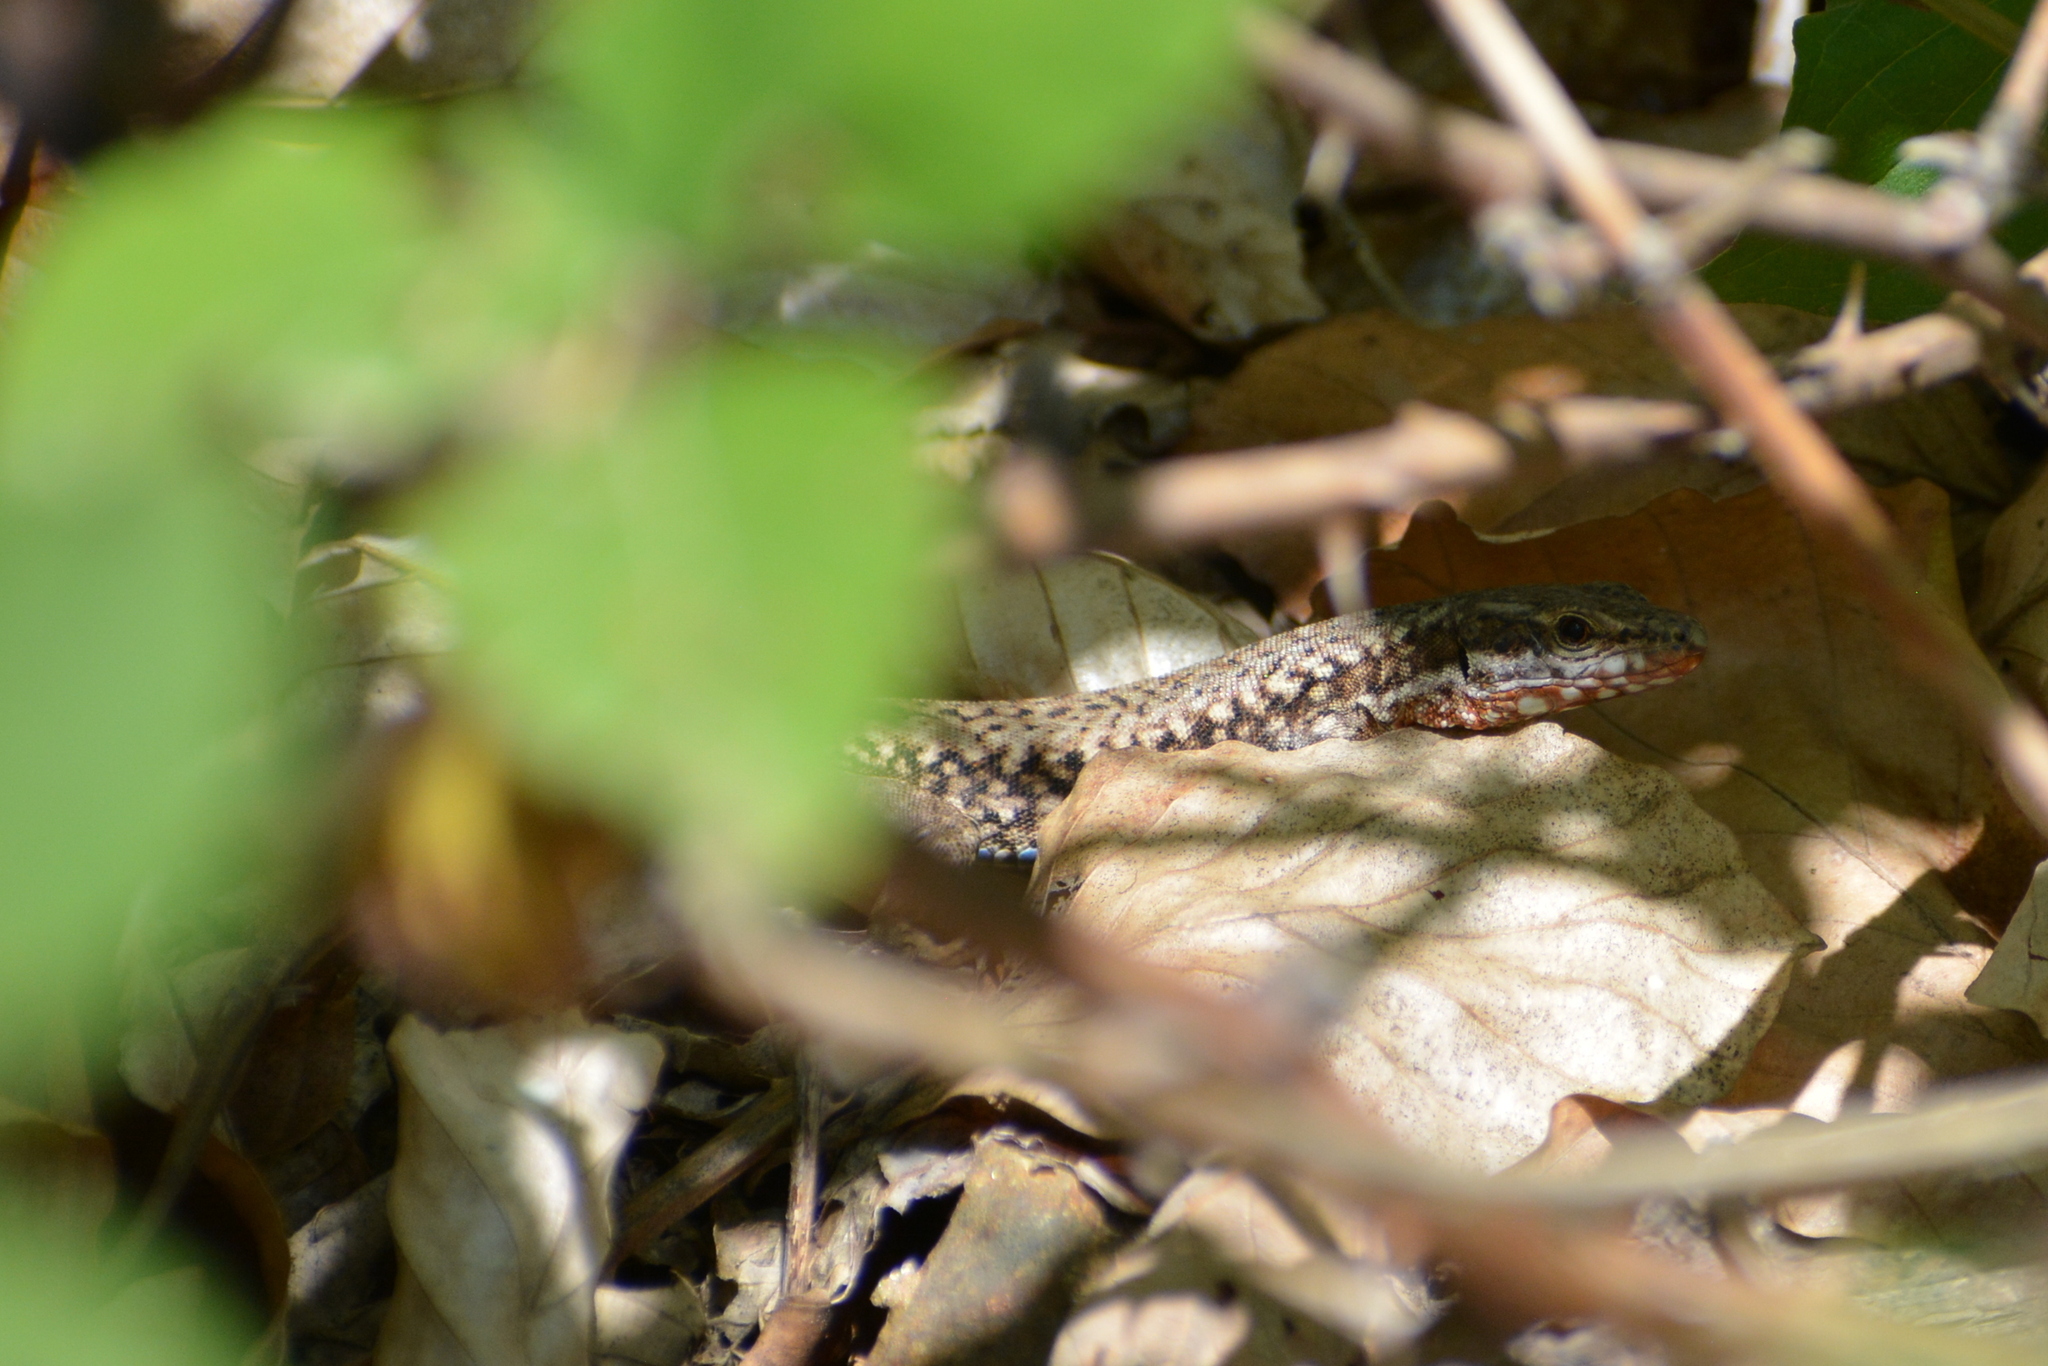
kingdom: Animalia
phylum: Chordata
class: Squamata
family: Lacertidae
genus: Podarcis
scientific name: Podarcis muralis
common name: Common wall lizard
